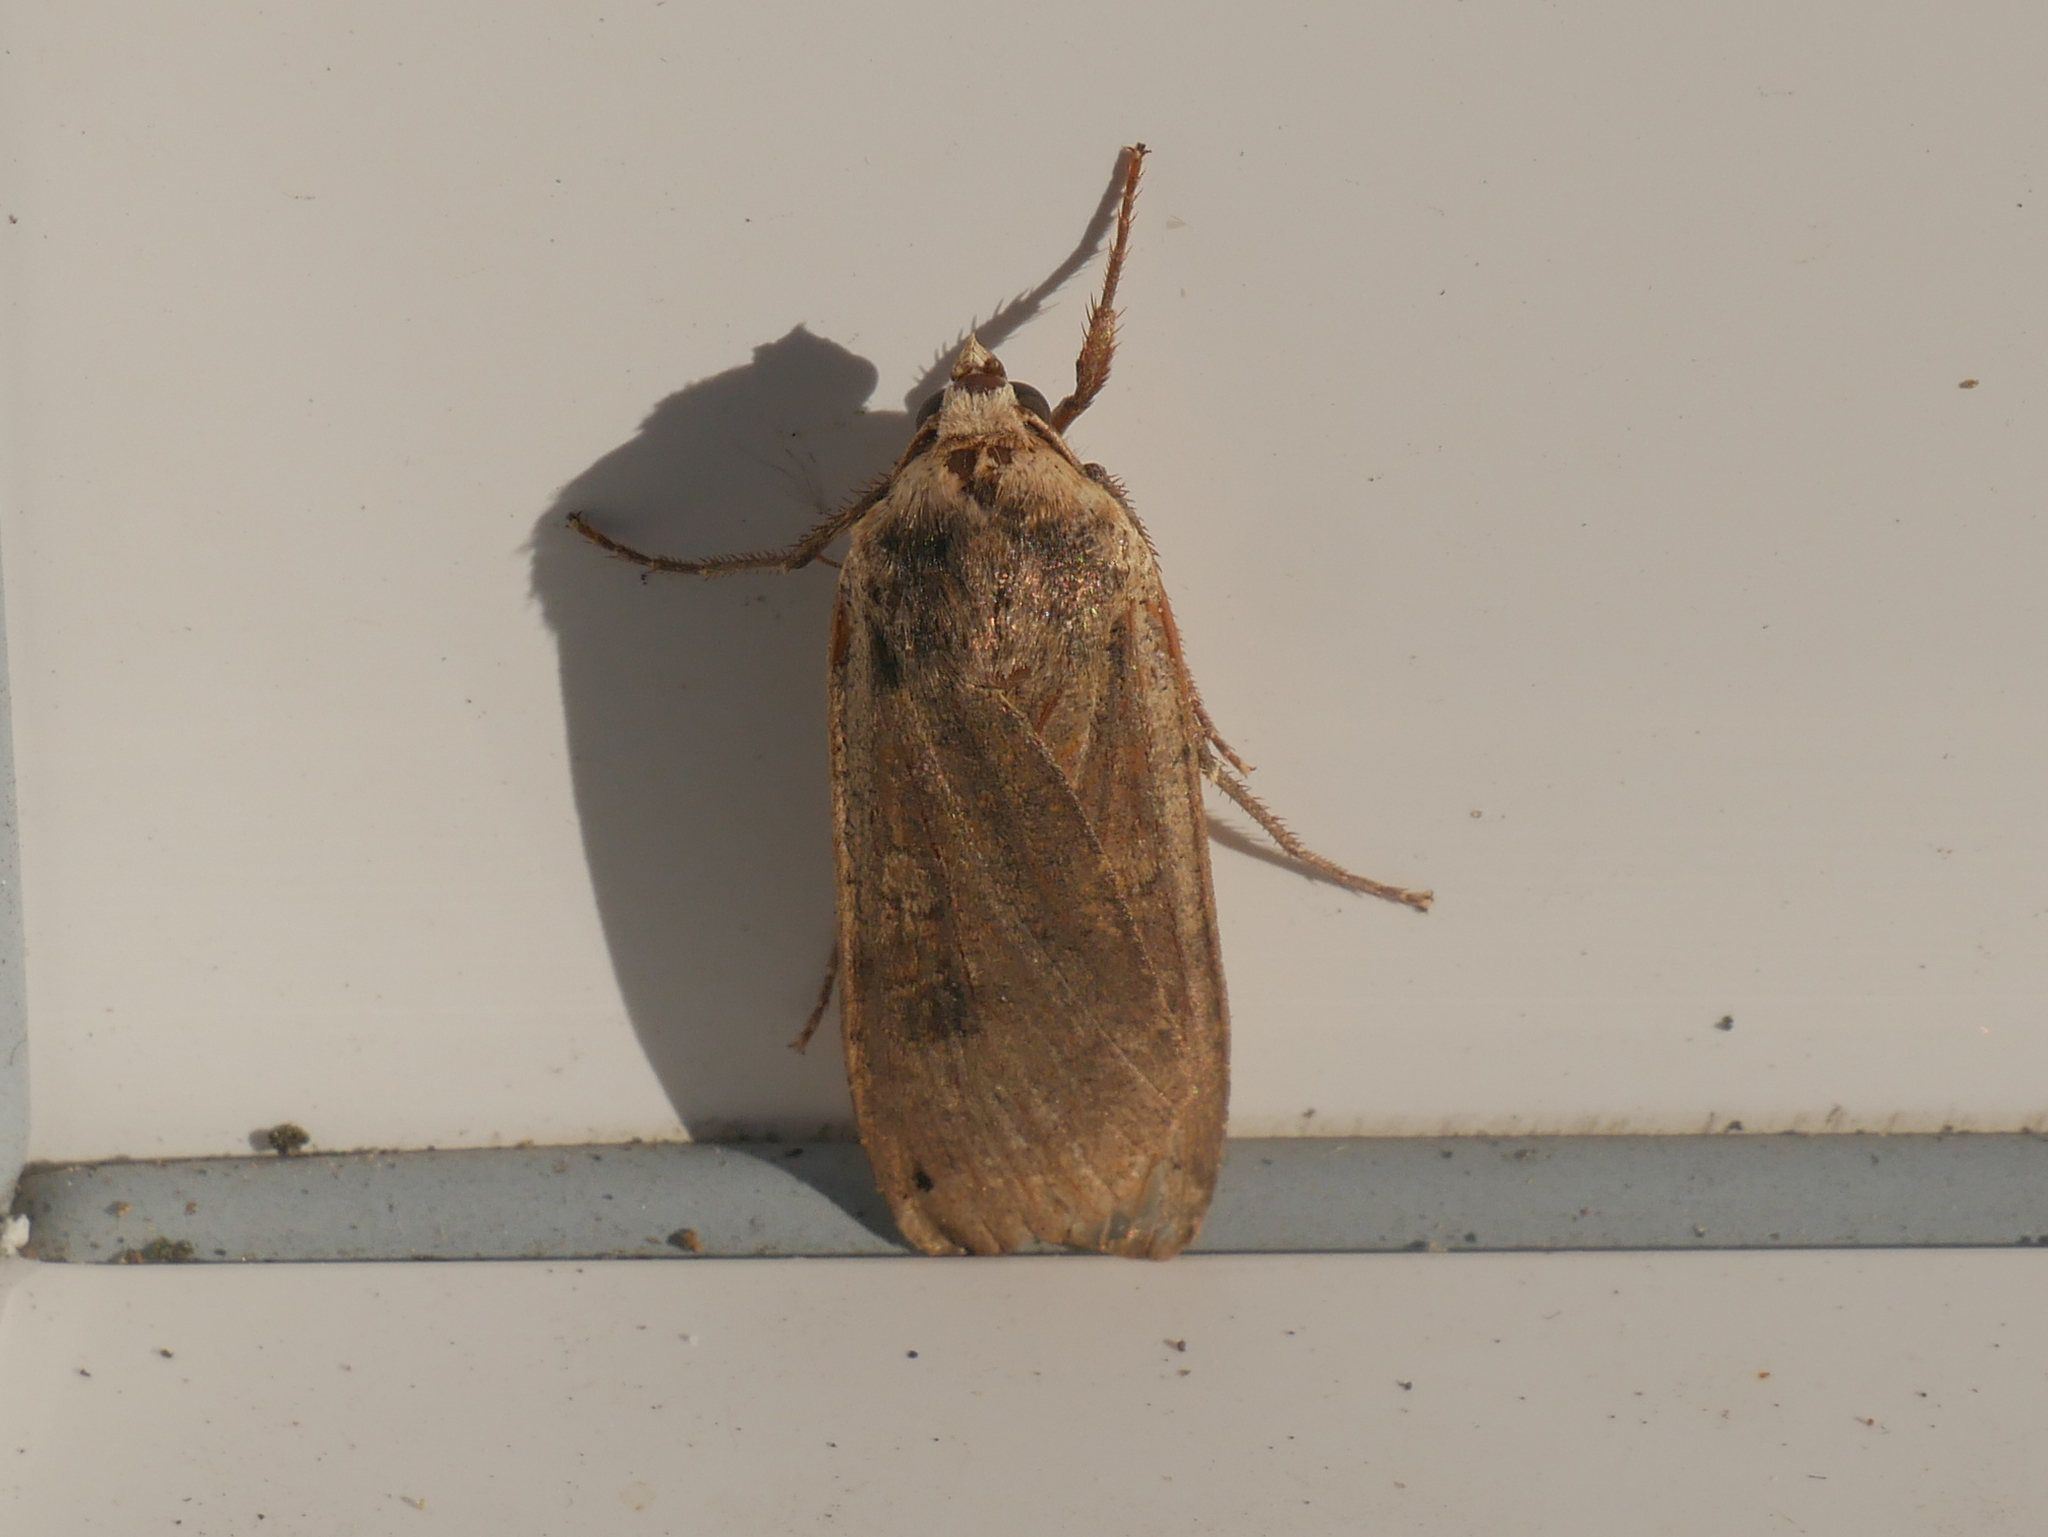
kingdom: Animalia
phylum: Arthropoda
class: Insecta
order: Lepidoptera
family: Noctuidae
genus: Noctua
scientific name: Noctua pronuba
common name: Large yellow underwing
